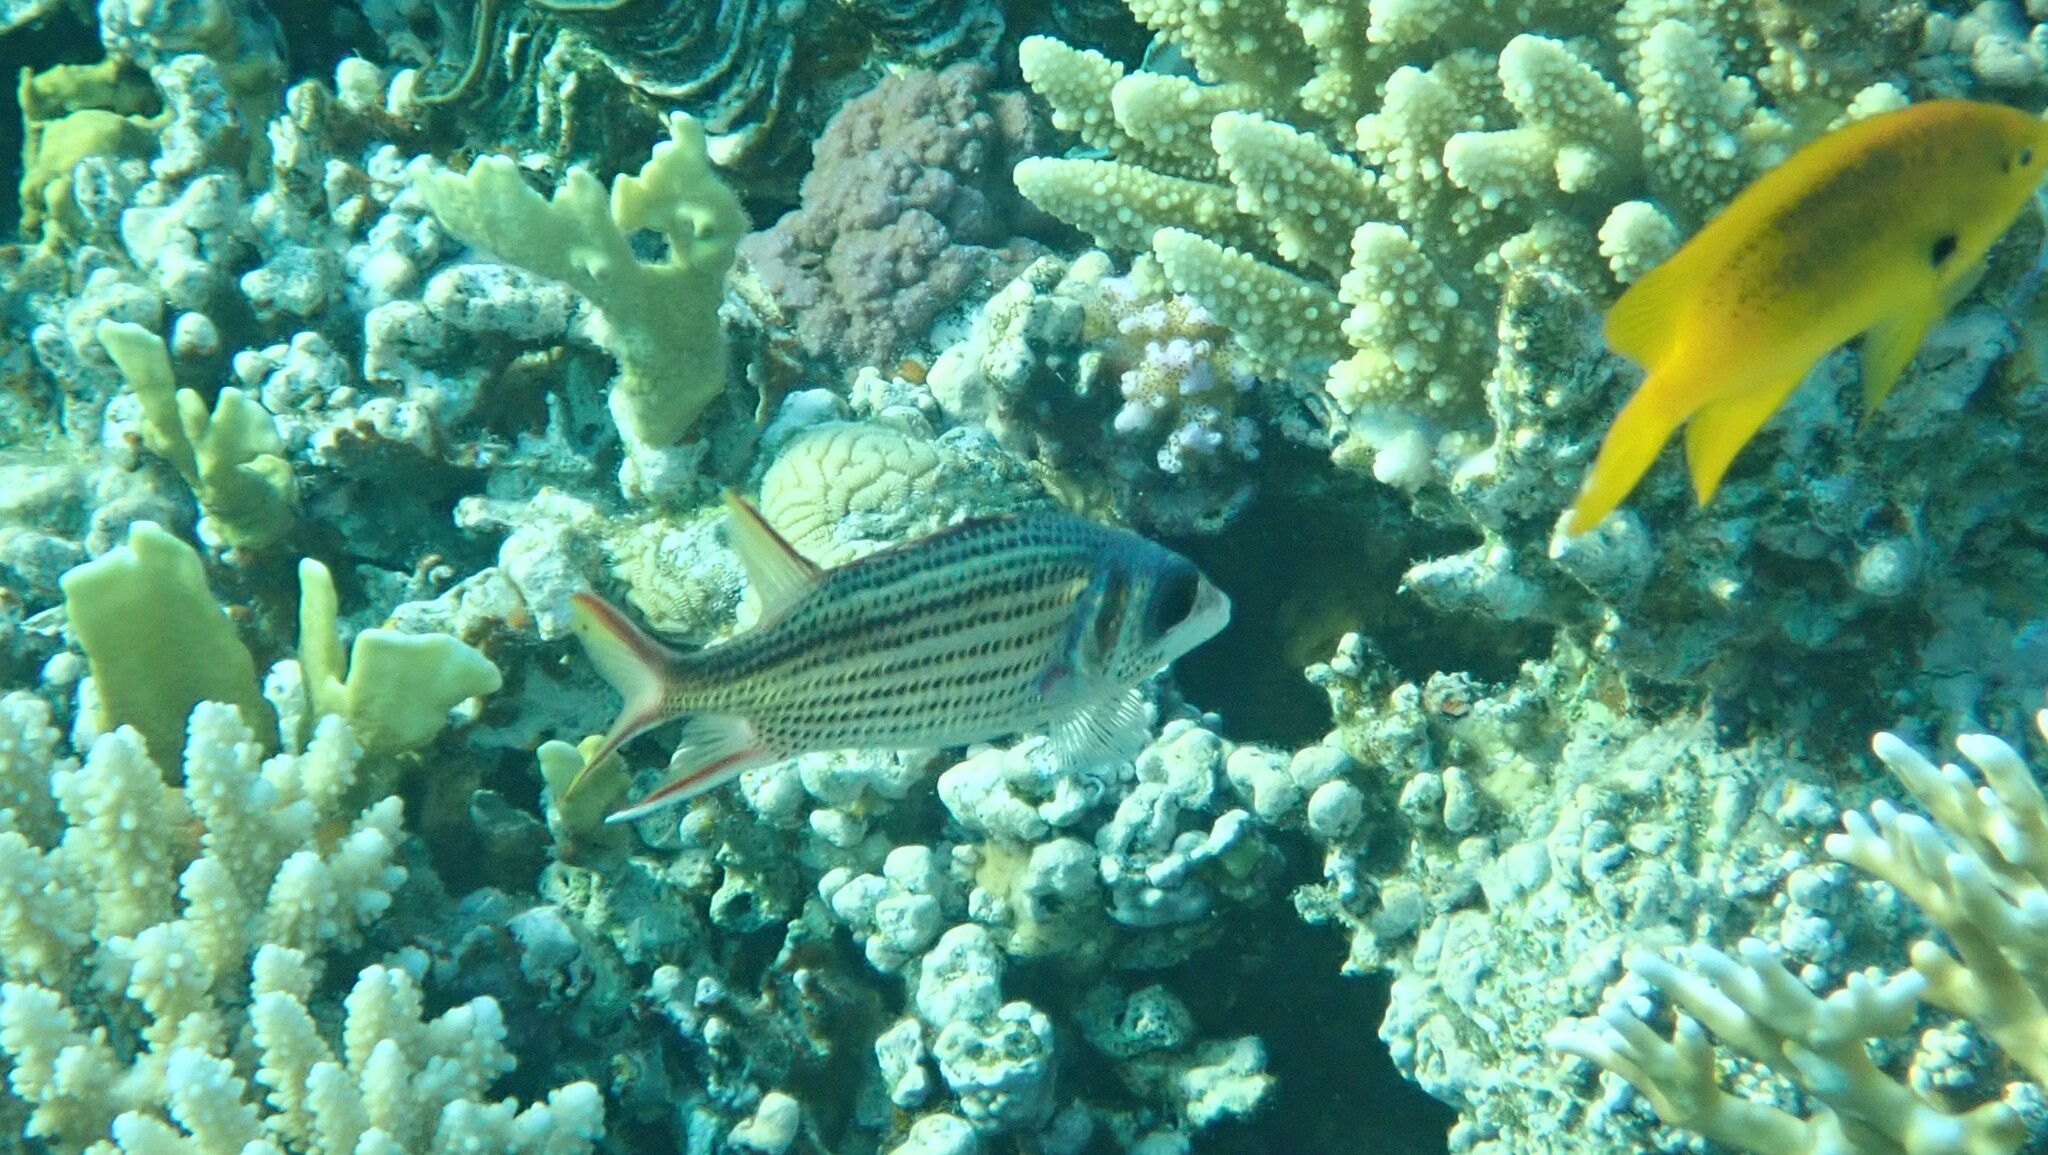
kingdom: Animalia
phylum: Chordata
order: Beryciformes
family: Holocentridae
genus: Neoniphon
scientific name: Neoniphon sammara
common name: Sammara squirrelfish
